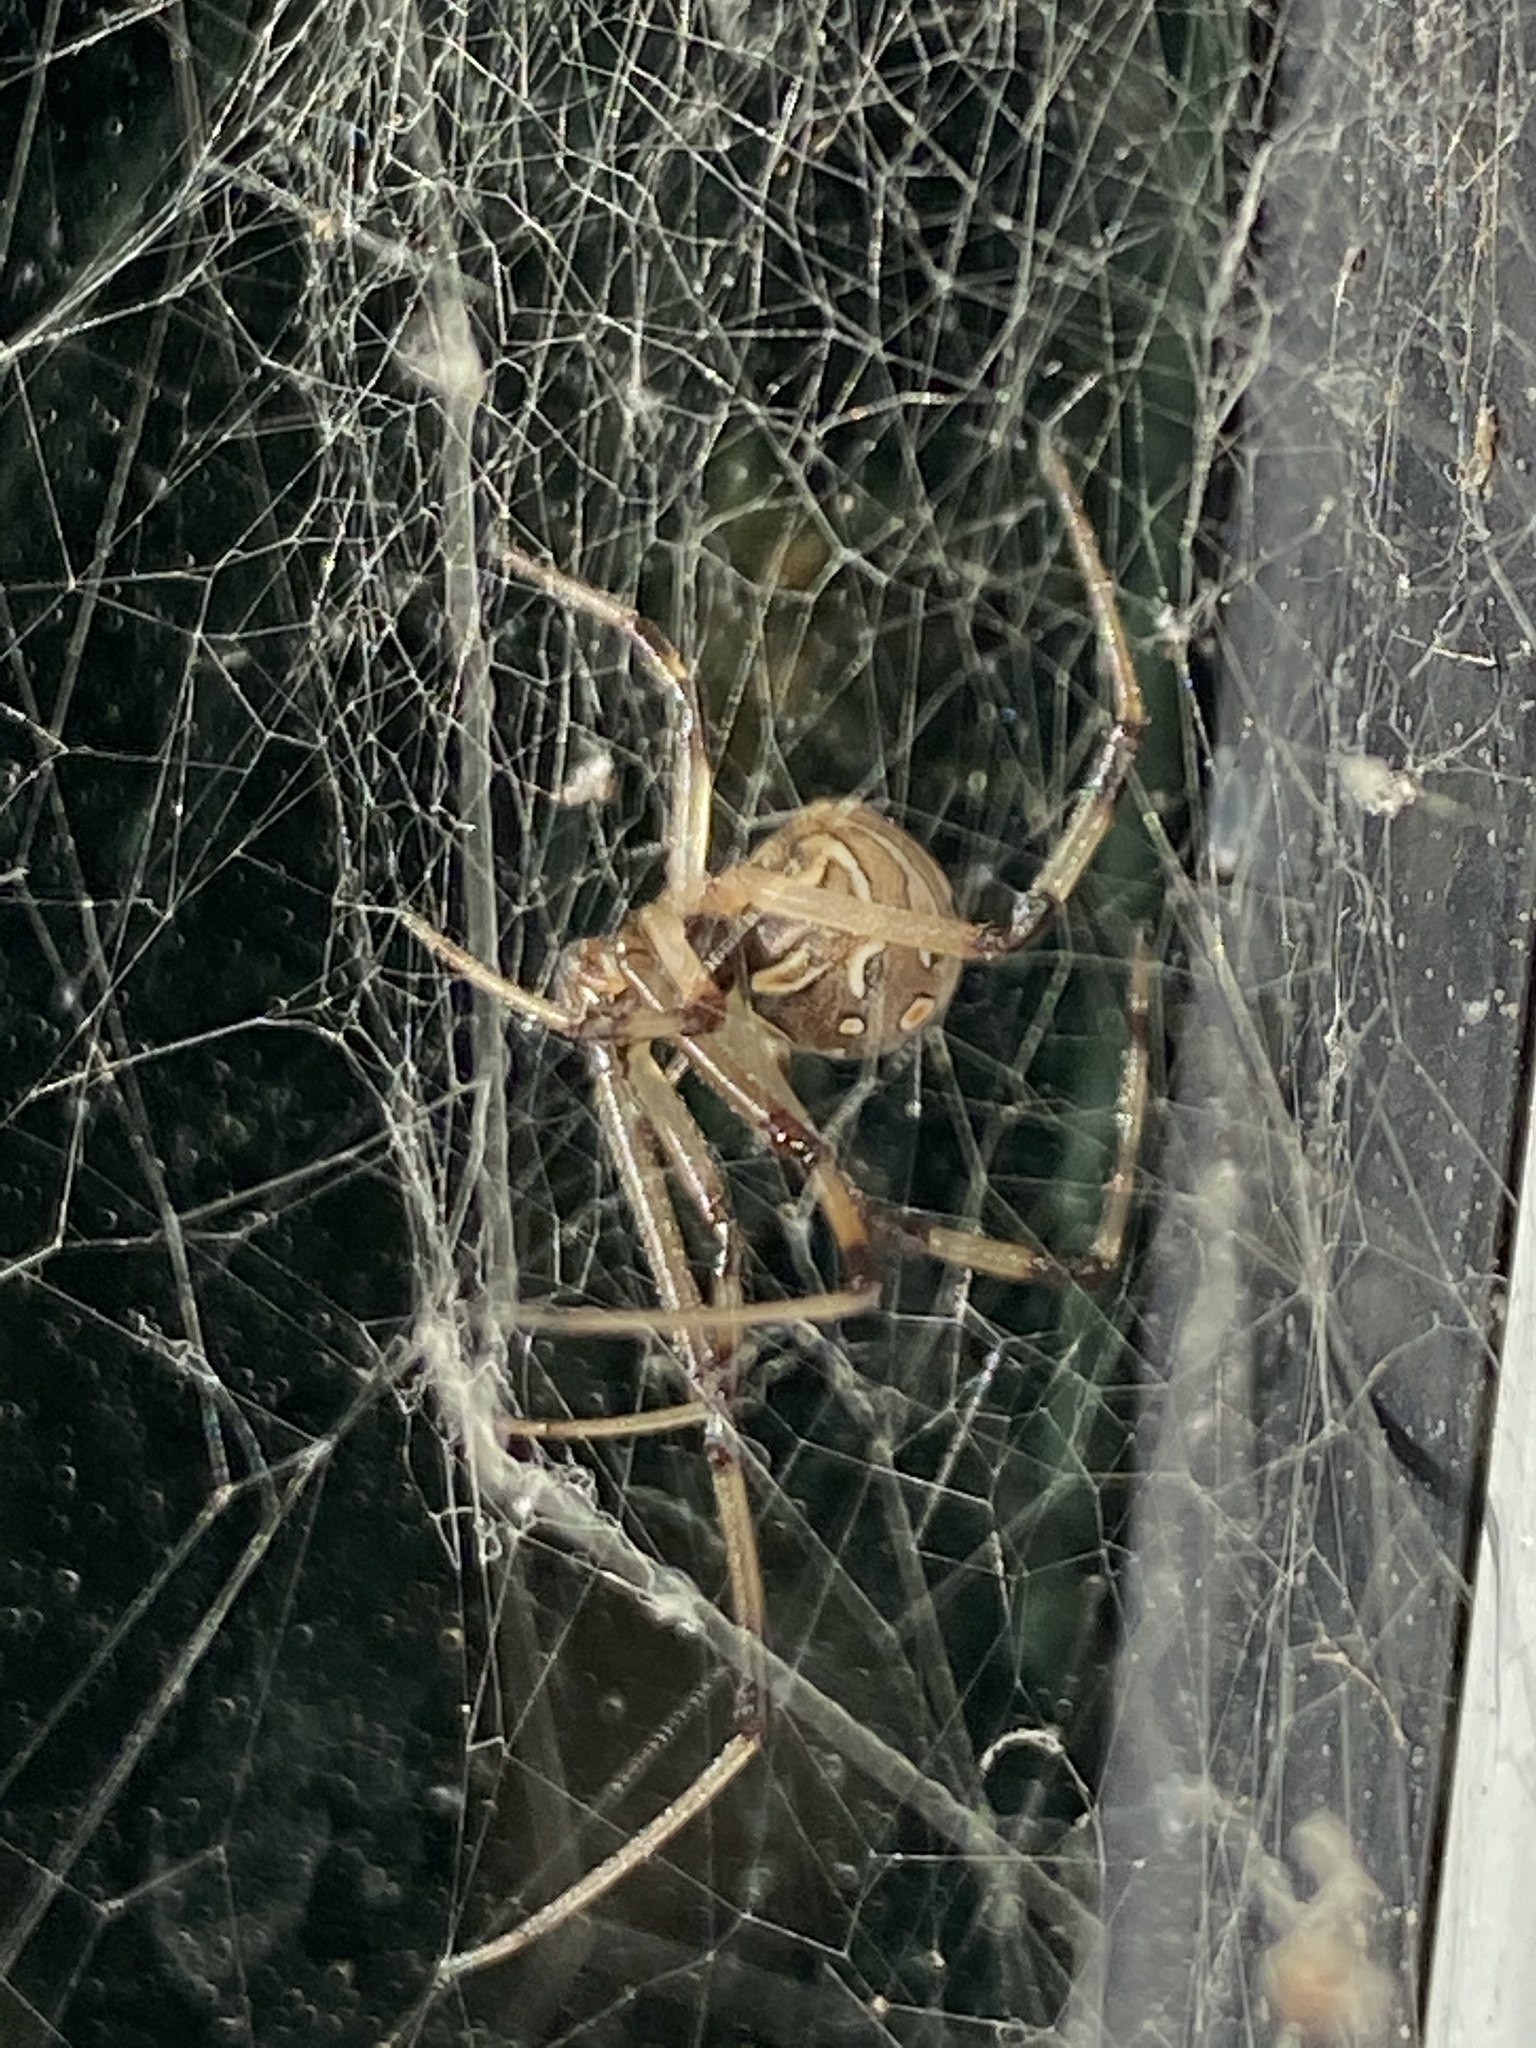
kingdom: Animalia
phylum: Arthropoda
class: Arachnida
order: Araneae
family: Theridiidae
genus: Latrodectus
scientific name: Latrodectus geometricus
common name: Brown widow spider
